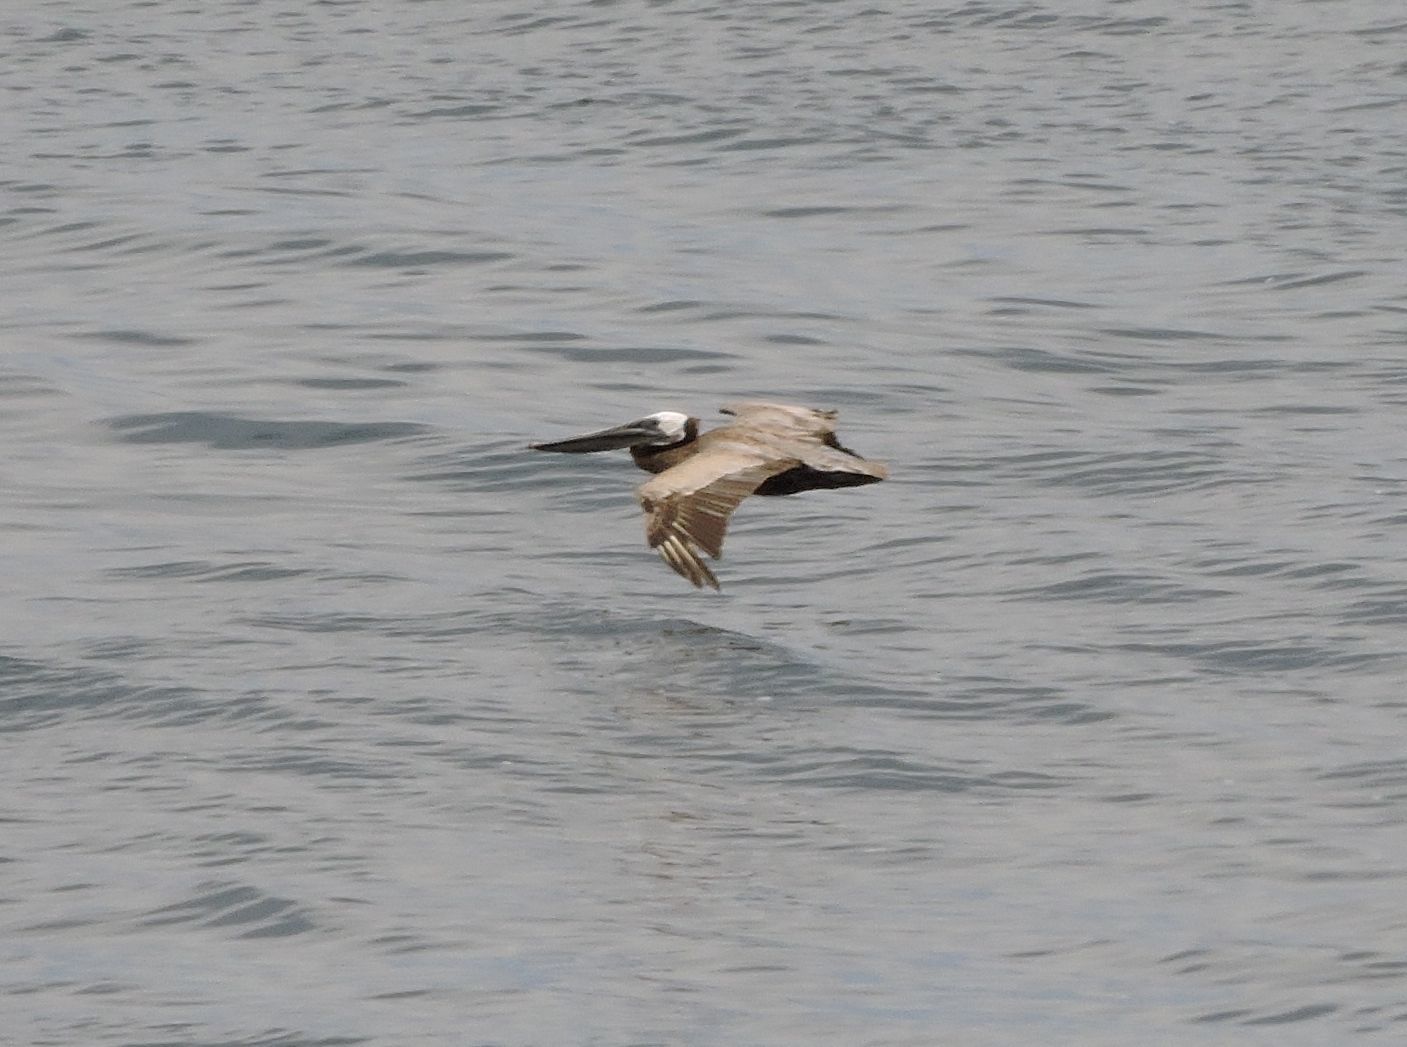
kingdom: Animalia
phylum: Chordata
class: Aves
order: Pelecaniformes
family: Pelecanidae
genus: Pelecanus
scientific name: Pelecanus occidentalis
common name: Brown pelican
